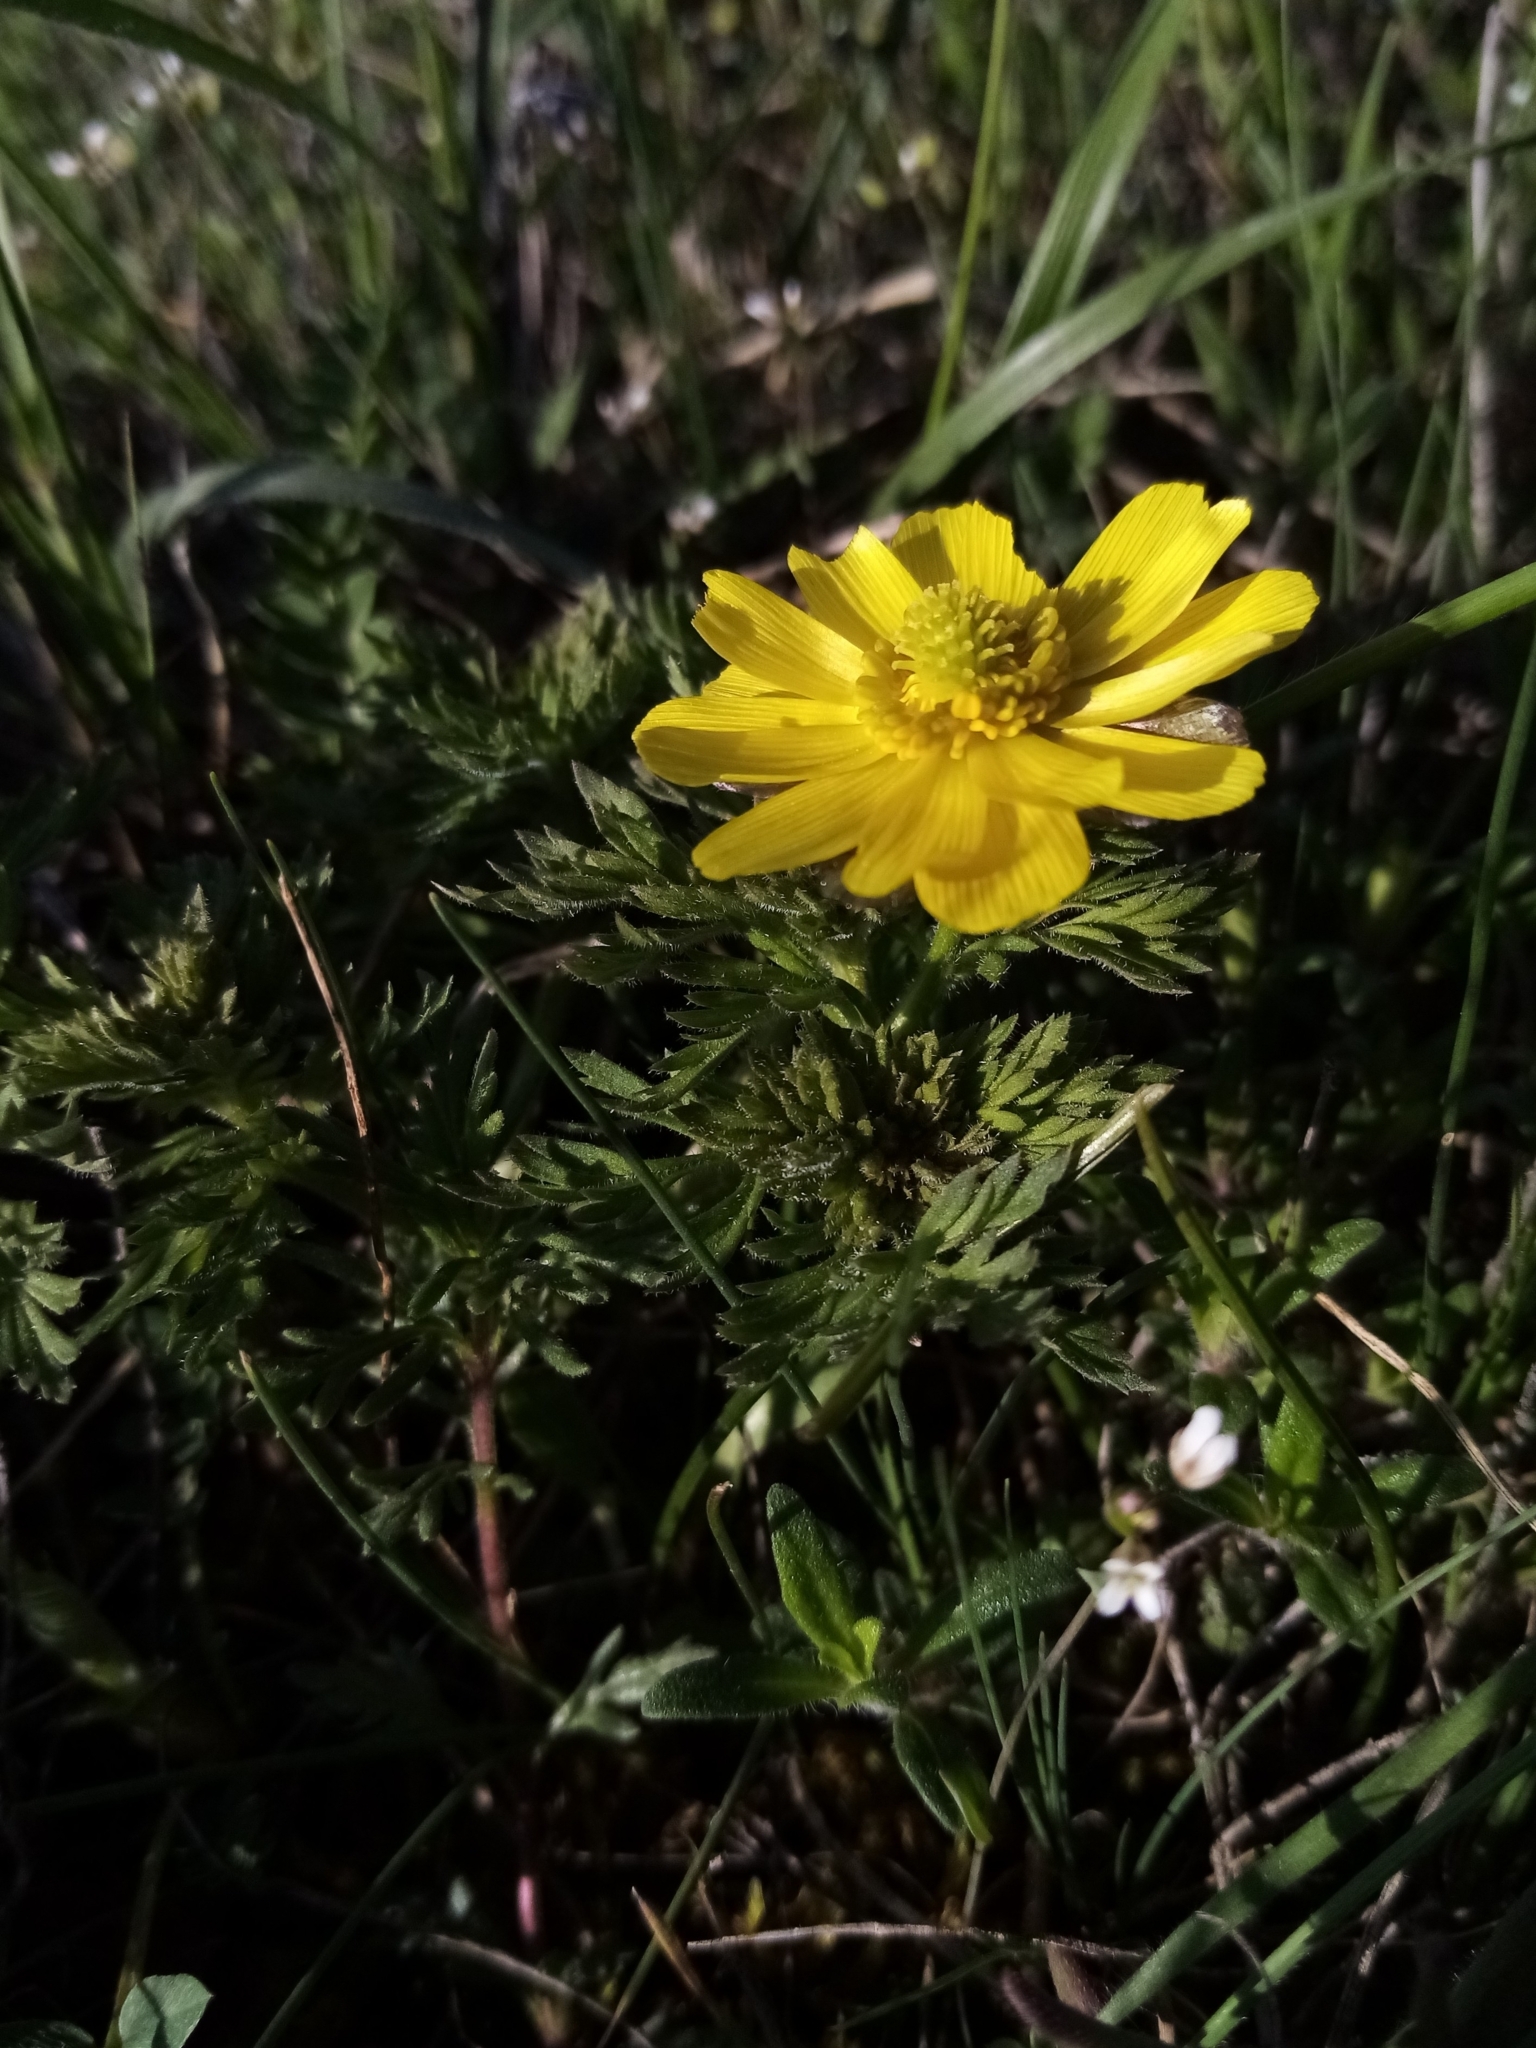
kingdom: Plantae
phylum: Tracheophyta
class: Magnoliopsida
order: Ranunculales
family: Ranunculaceae
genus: Adonis
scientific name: Adonis volgensis
